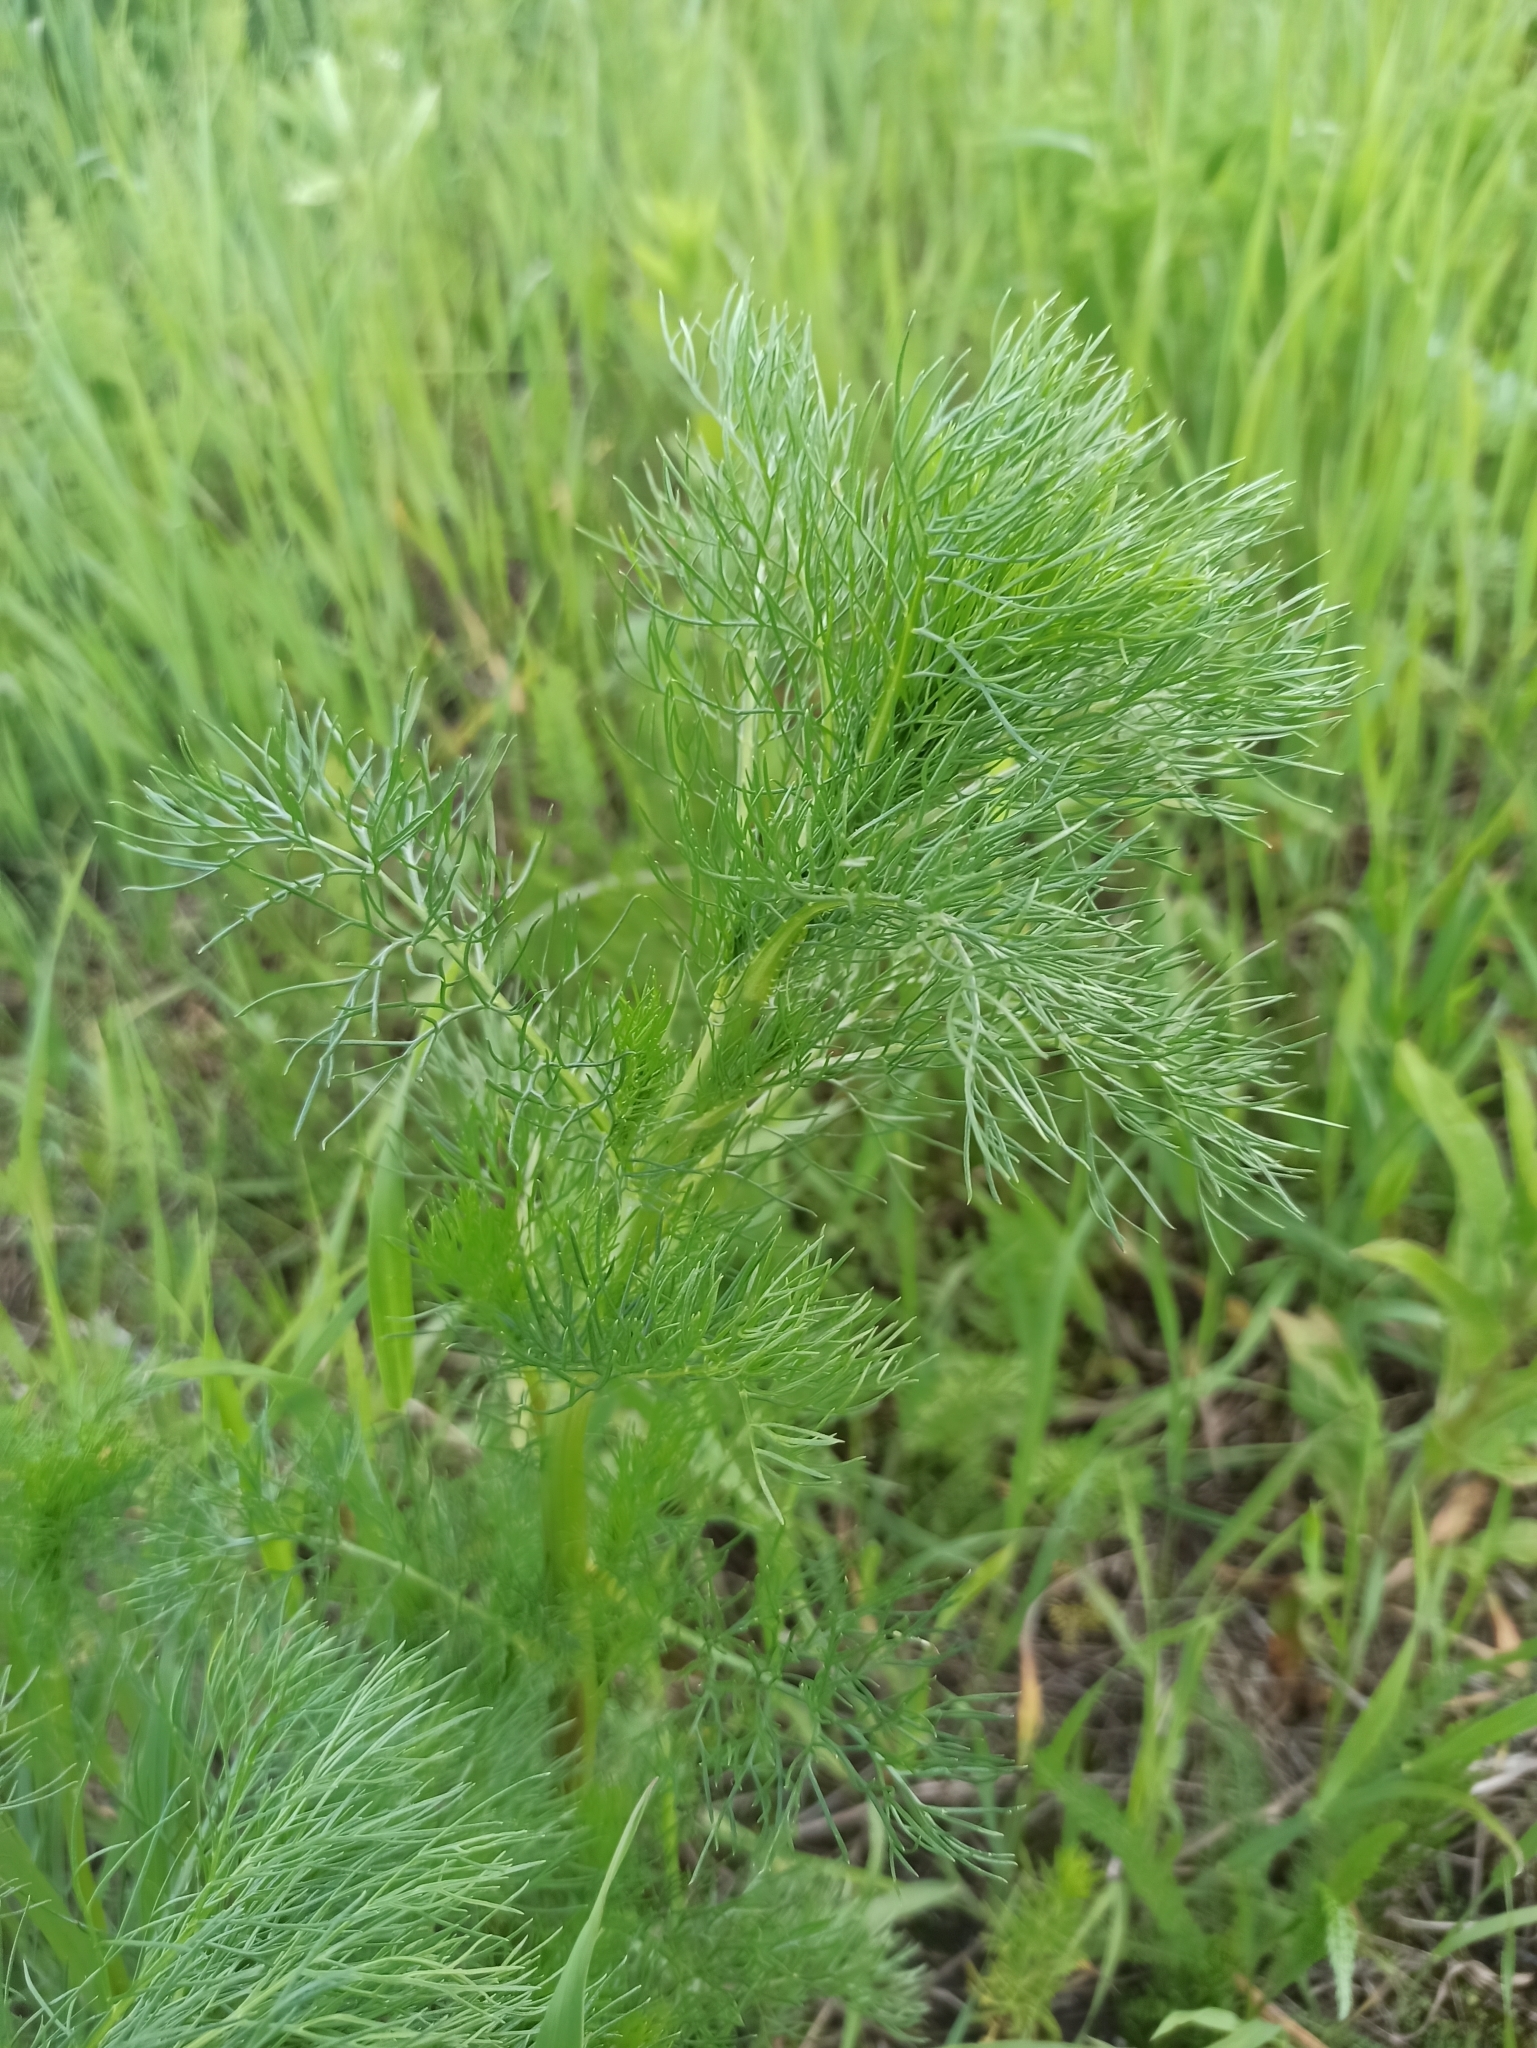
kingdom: Plantae
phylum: Tracheophyta
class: Magnoliopsida
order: Asterales
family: Asteraceae
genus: Tripleurospermum
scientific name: Tripleurospermum inodorum
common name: Scentless mayweed
